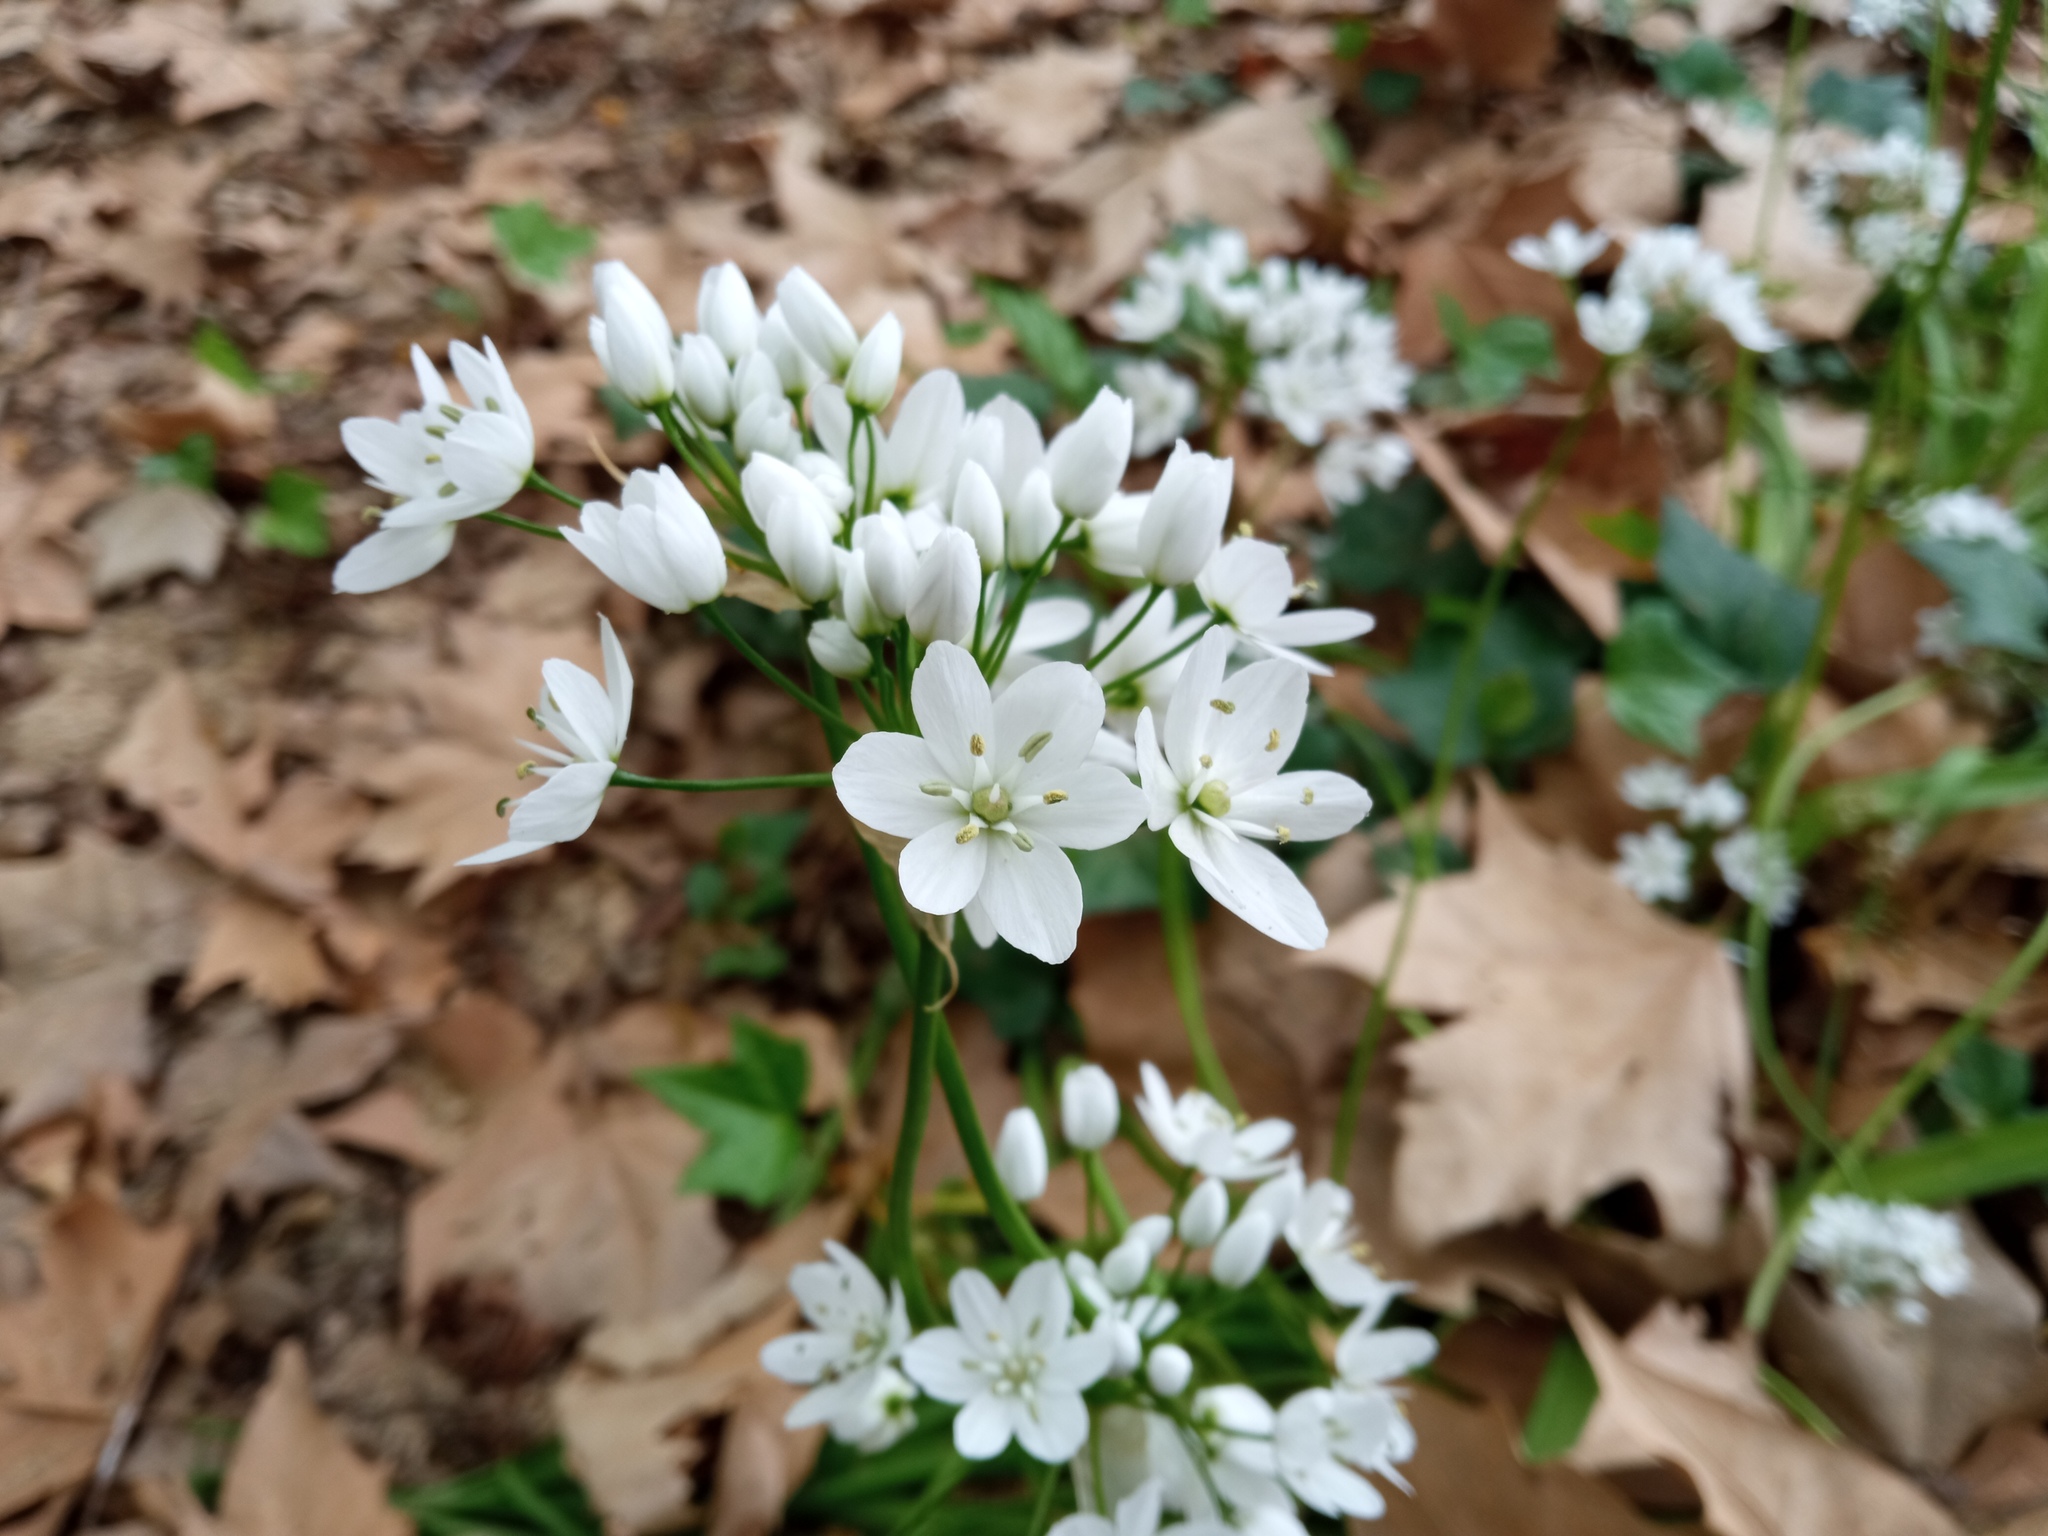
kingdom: Plantae
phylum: Tracheophyta
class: Liliopsida
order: Asparagales
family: Amaryllidaceae
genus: Allium
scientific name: Allium neapolitanum
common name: Neapolitan garlic
